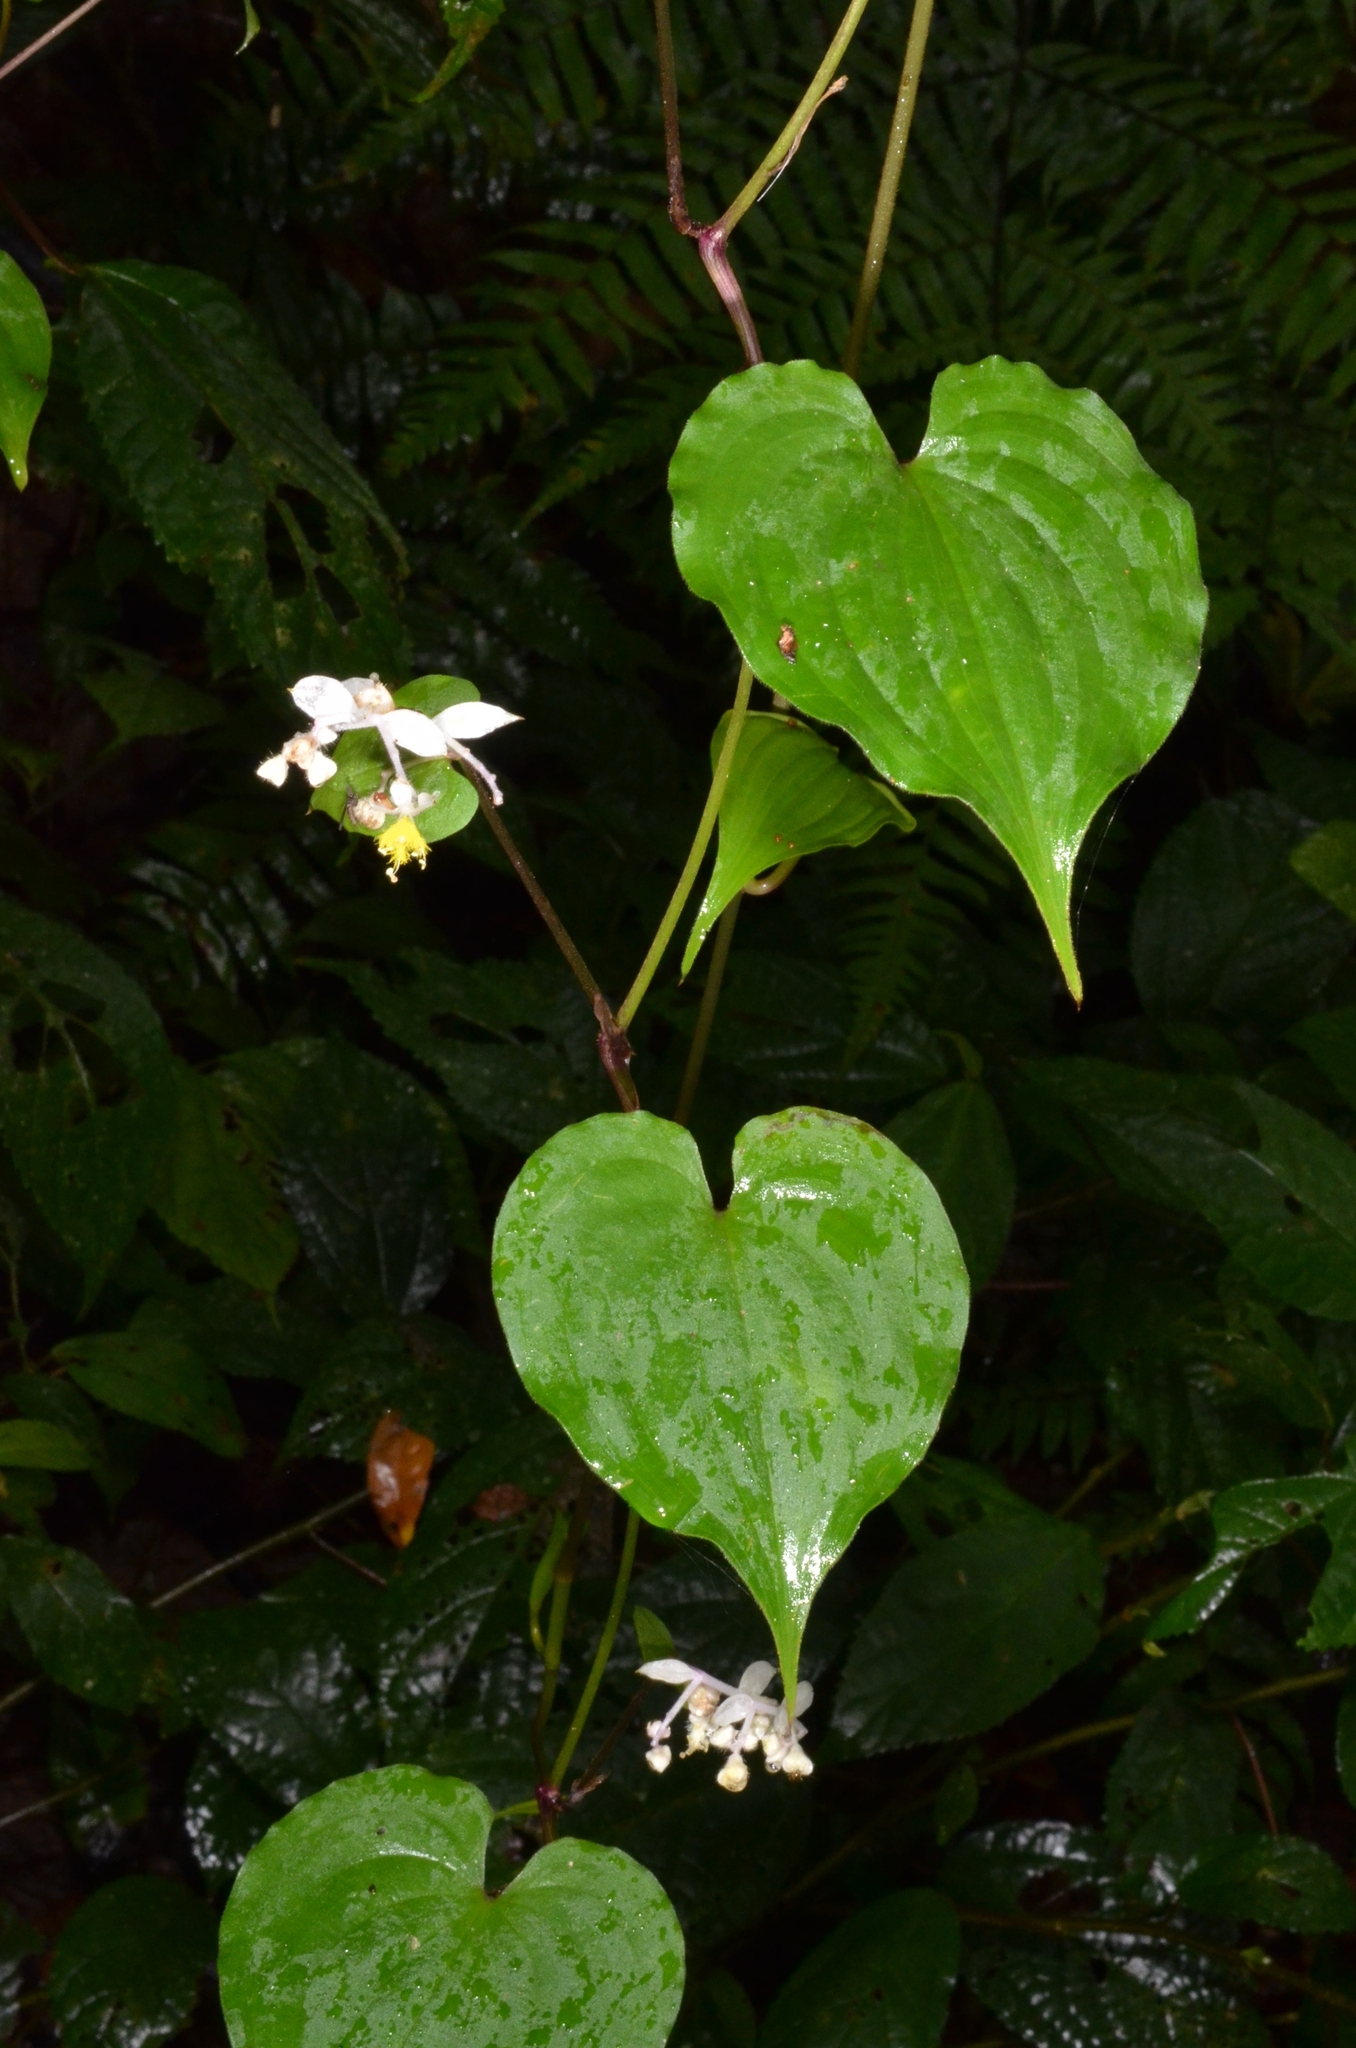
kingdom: Plantae
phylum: Tracheophyta
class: Liliopsida
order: Commelinales
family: Commelinaceae
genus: Streptolirion
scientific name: Streptolirion volubile
